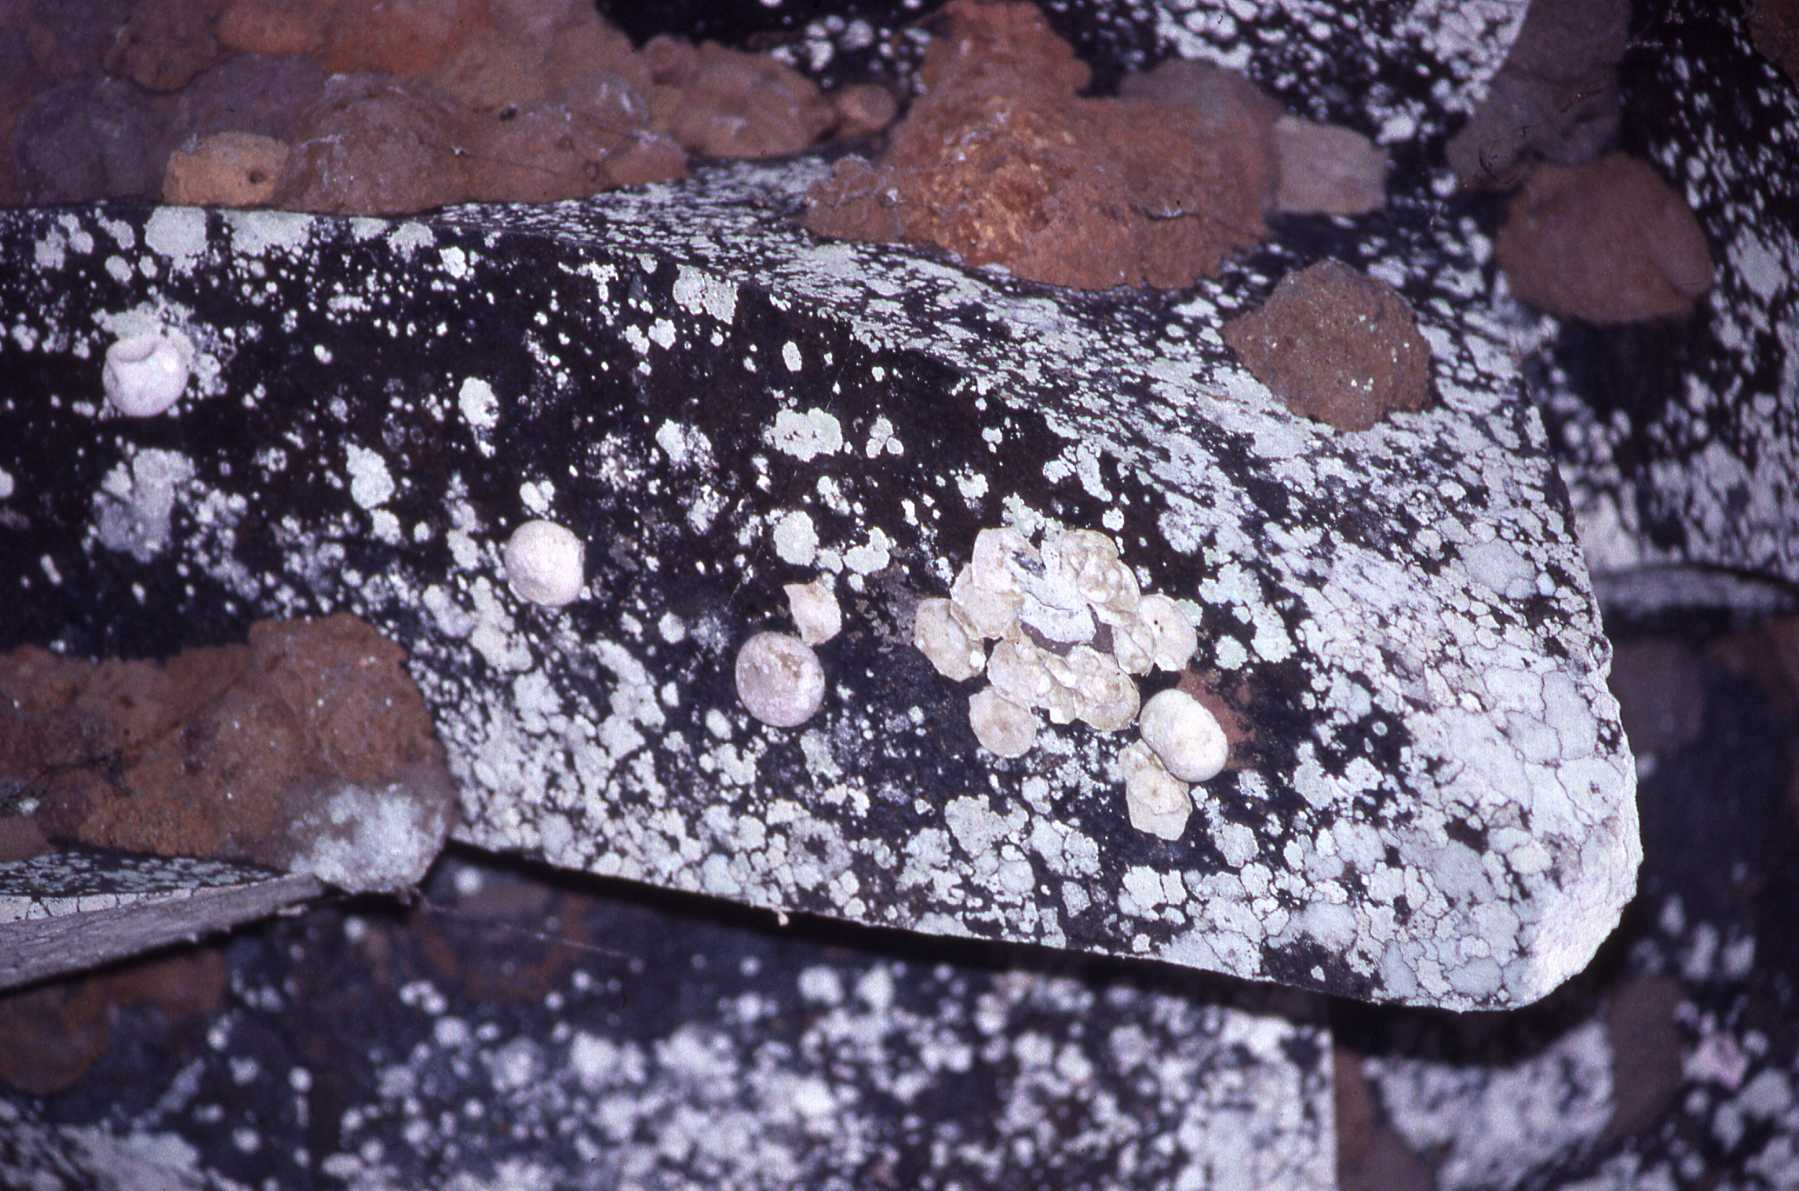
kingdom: Animalia
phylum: Chordata
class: Squamata
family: Gekkonidae
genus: Phelsuma
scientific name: Phelsuma guentheri
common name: Round lsland day gecko
